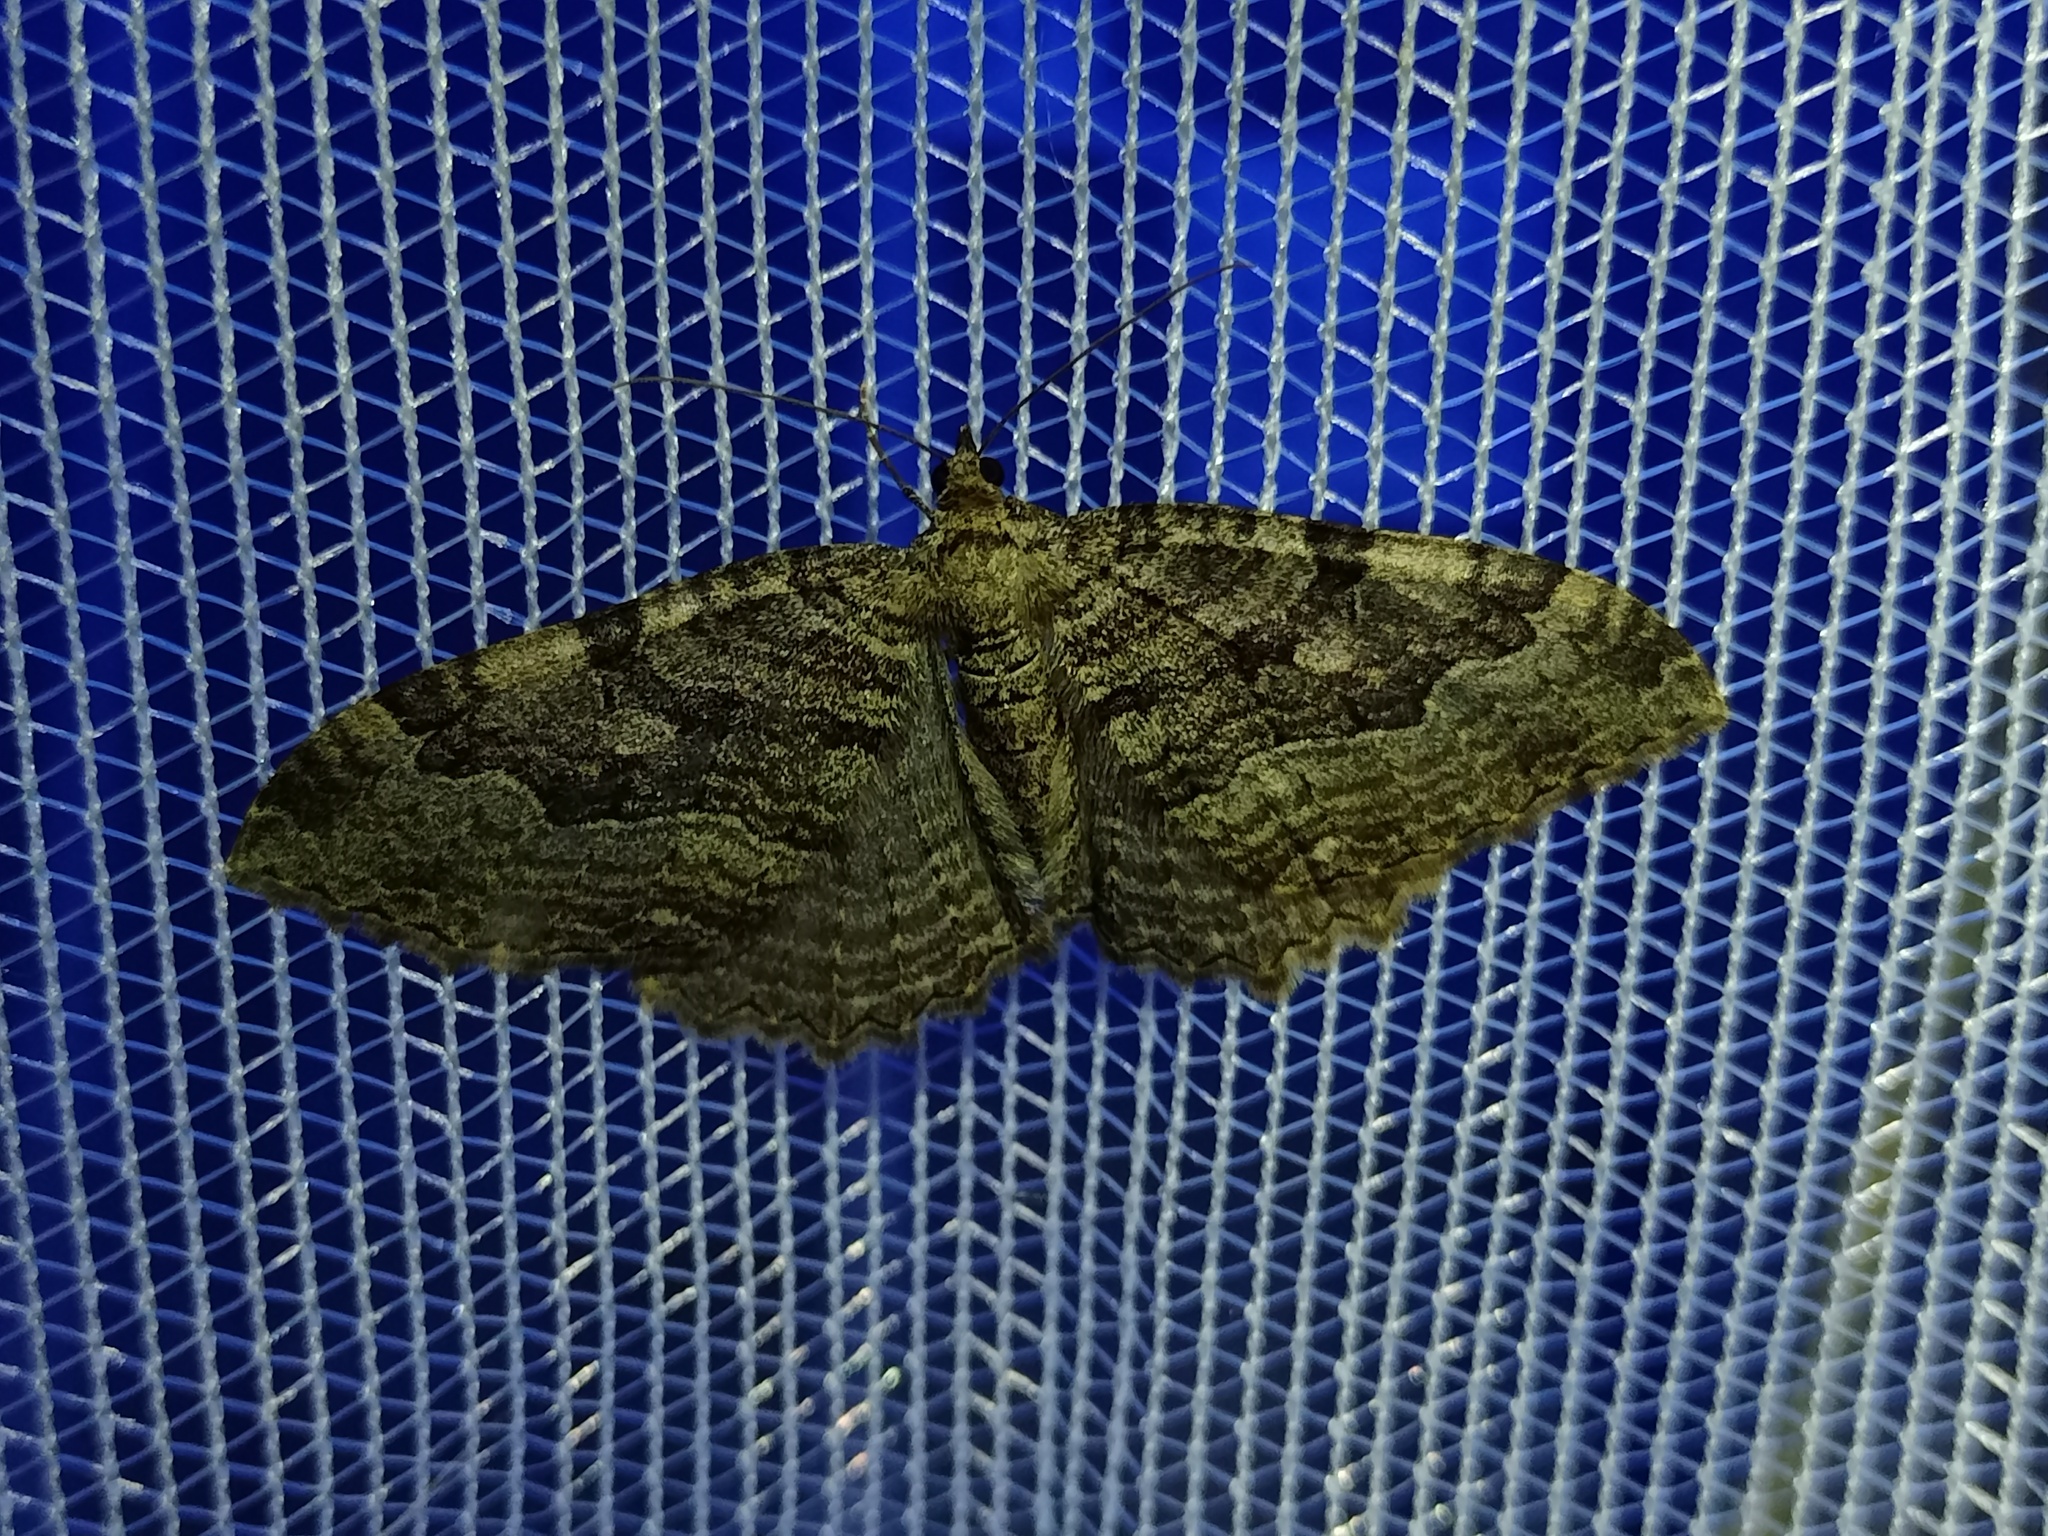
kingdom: Animalia
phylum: Arthropoda
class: Insecta
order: Lepidoptera
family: Geometridae
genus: Rheumaptera
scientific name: Rheumaptera Hydria cervinalis
